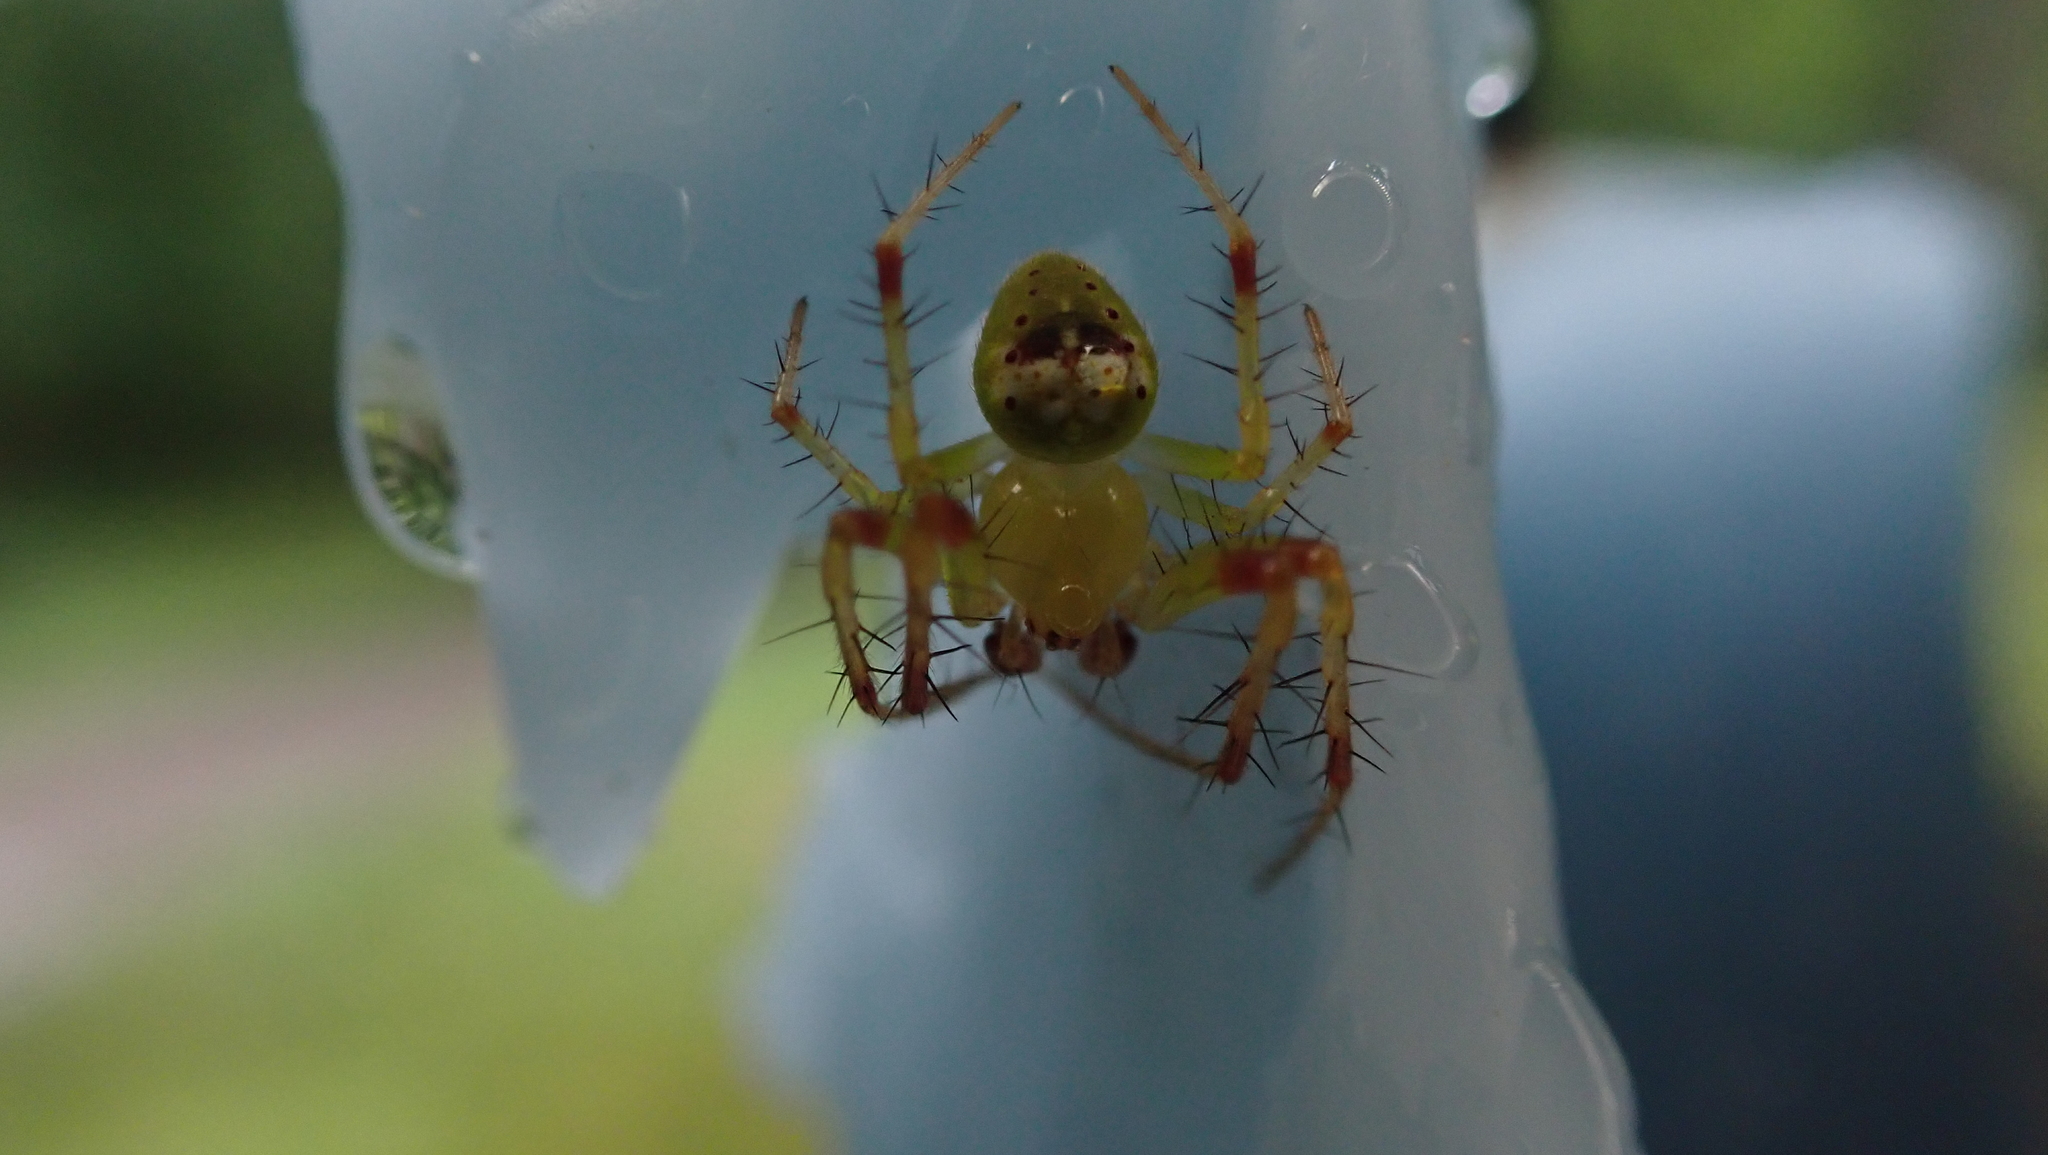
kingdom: Animalia
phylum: Arthropoda
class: Arachnida
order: Araneae
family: Araneidae
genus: Araneus
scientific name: Araneus bonsallae
